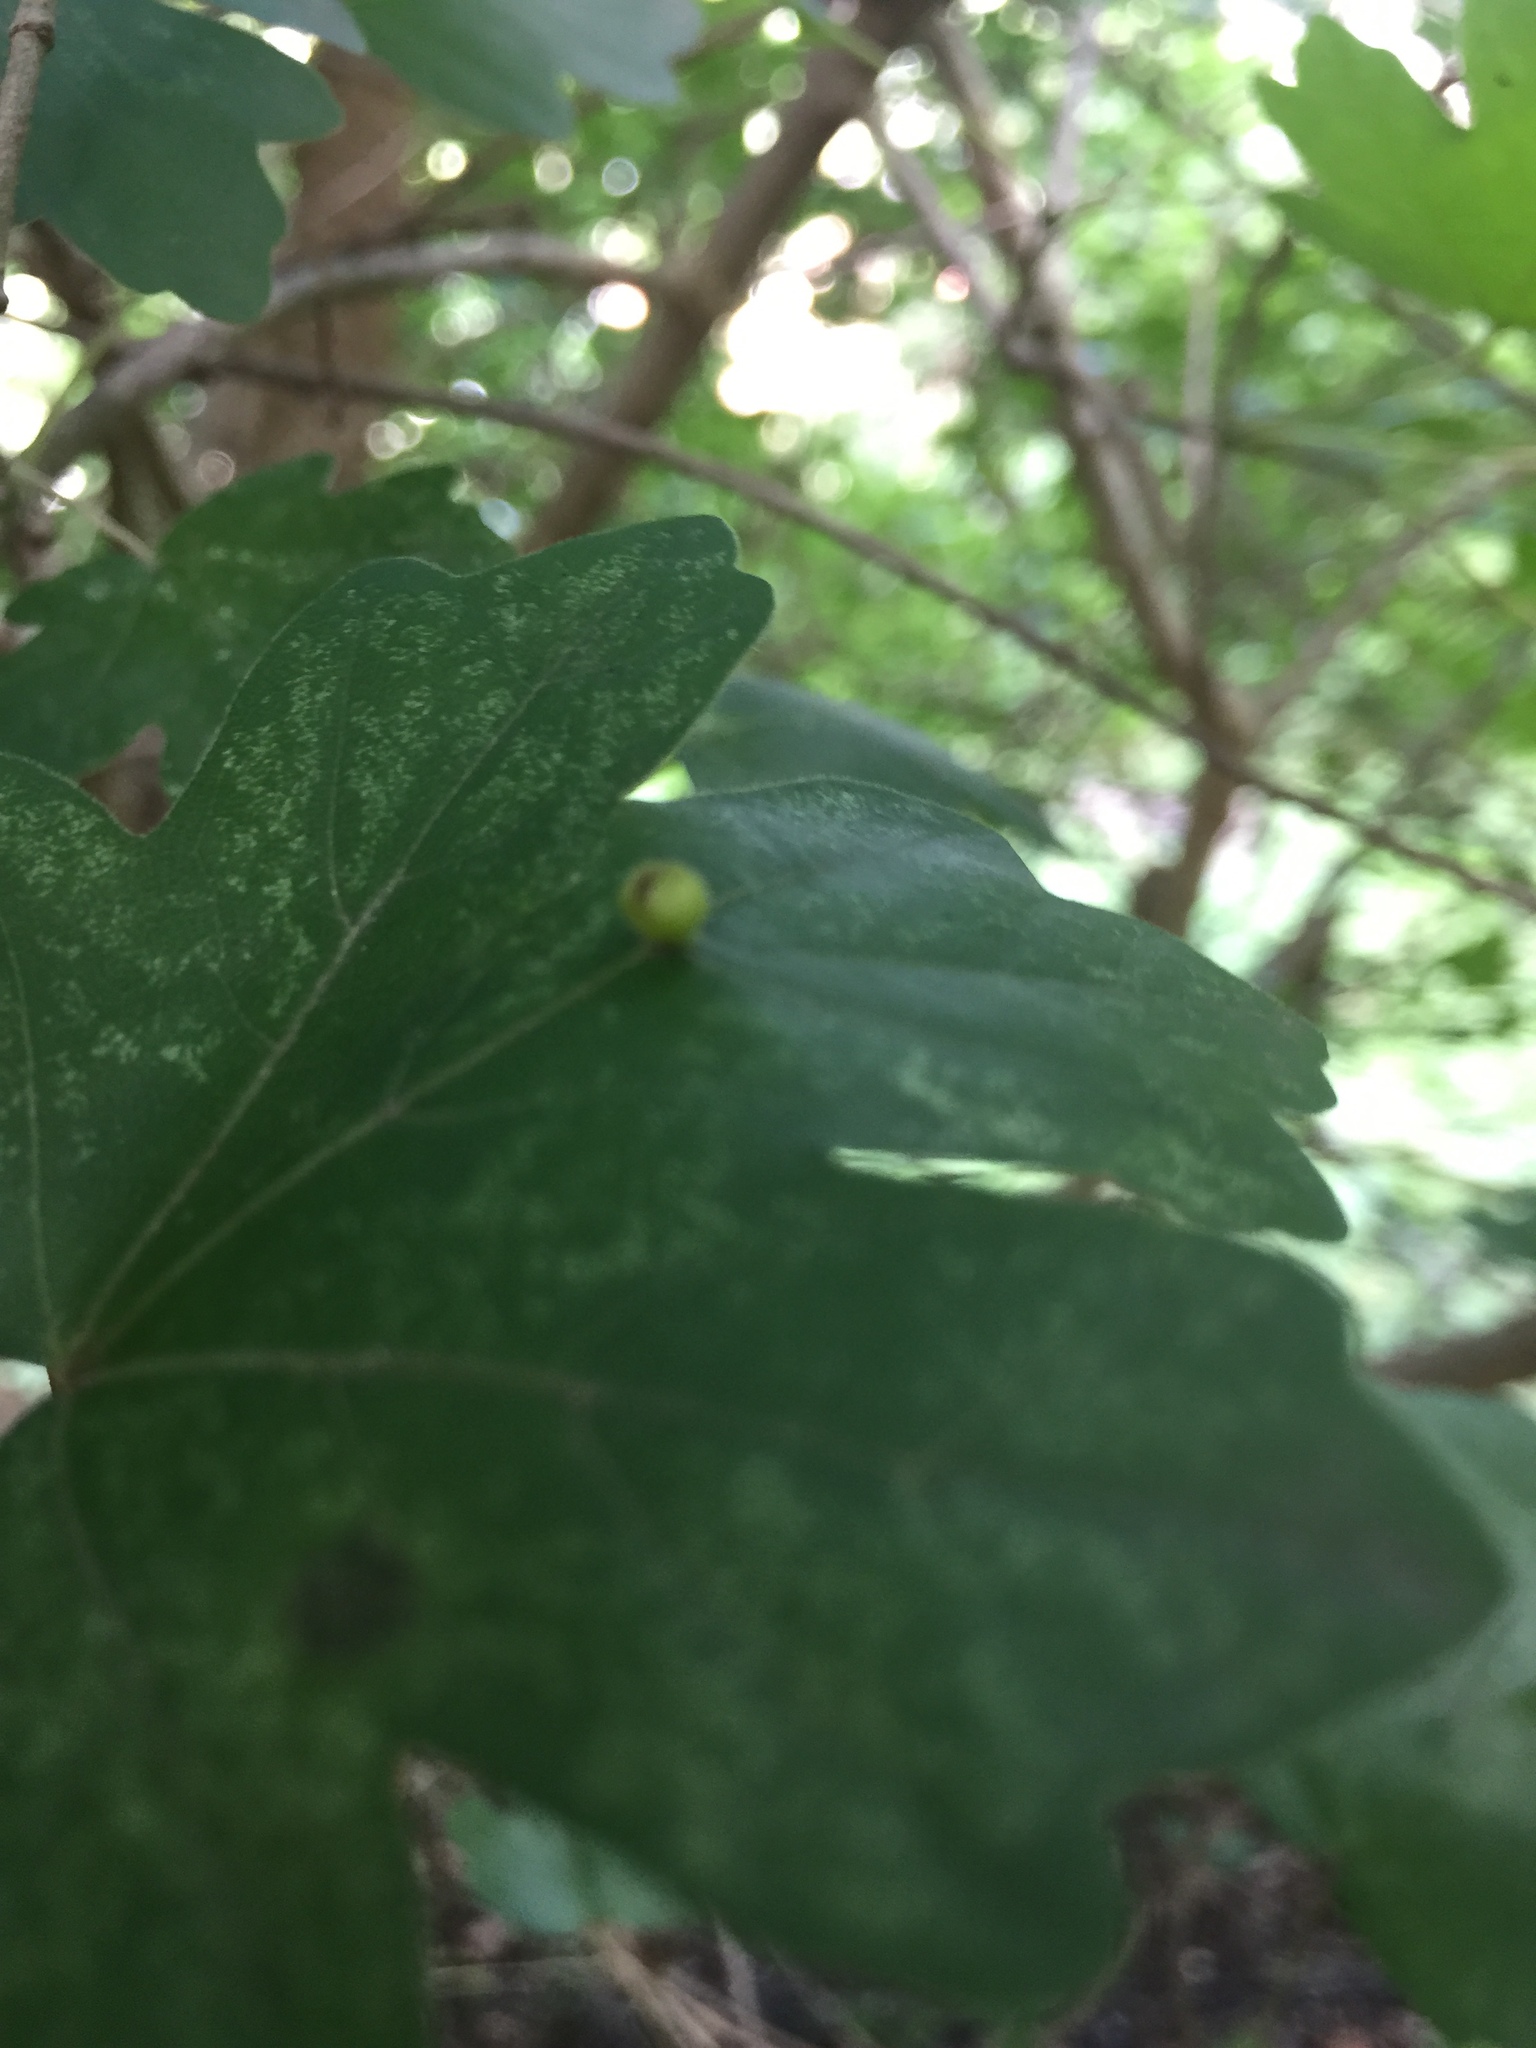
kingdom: Animalia
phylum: Arthropoda
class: Arachnida
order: Trombidiformes
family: Eriophyidae
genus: Aceria
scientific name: Aceria macrochelus
